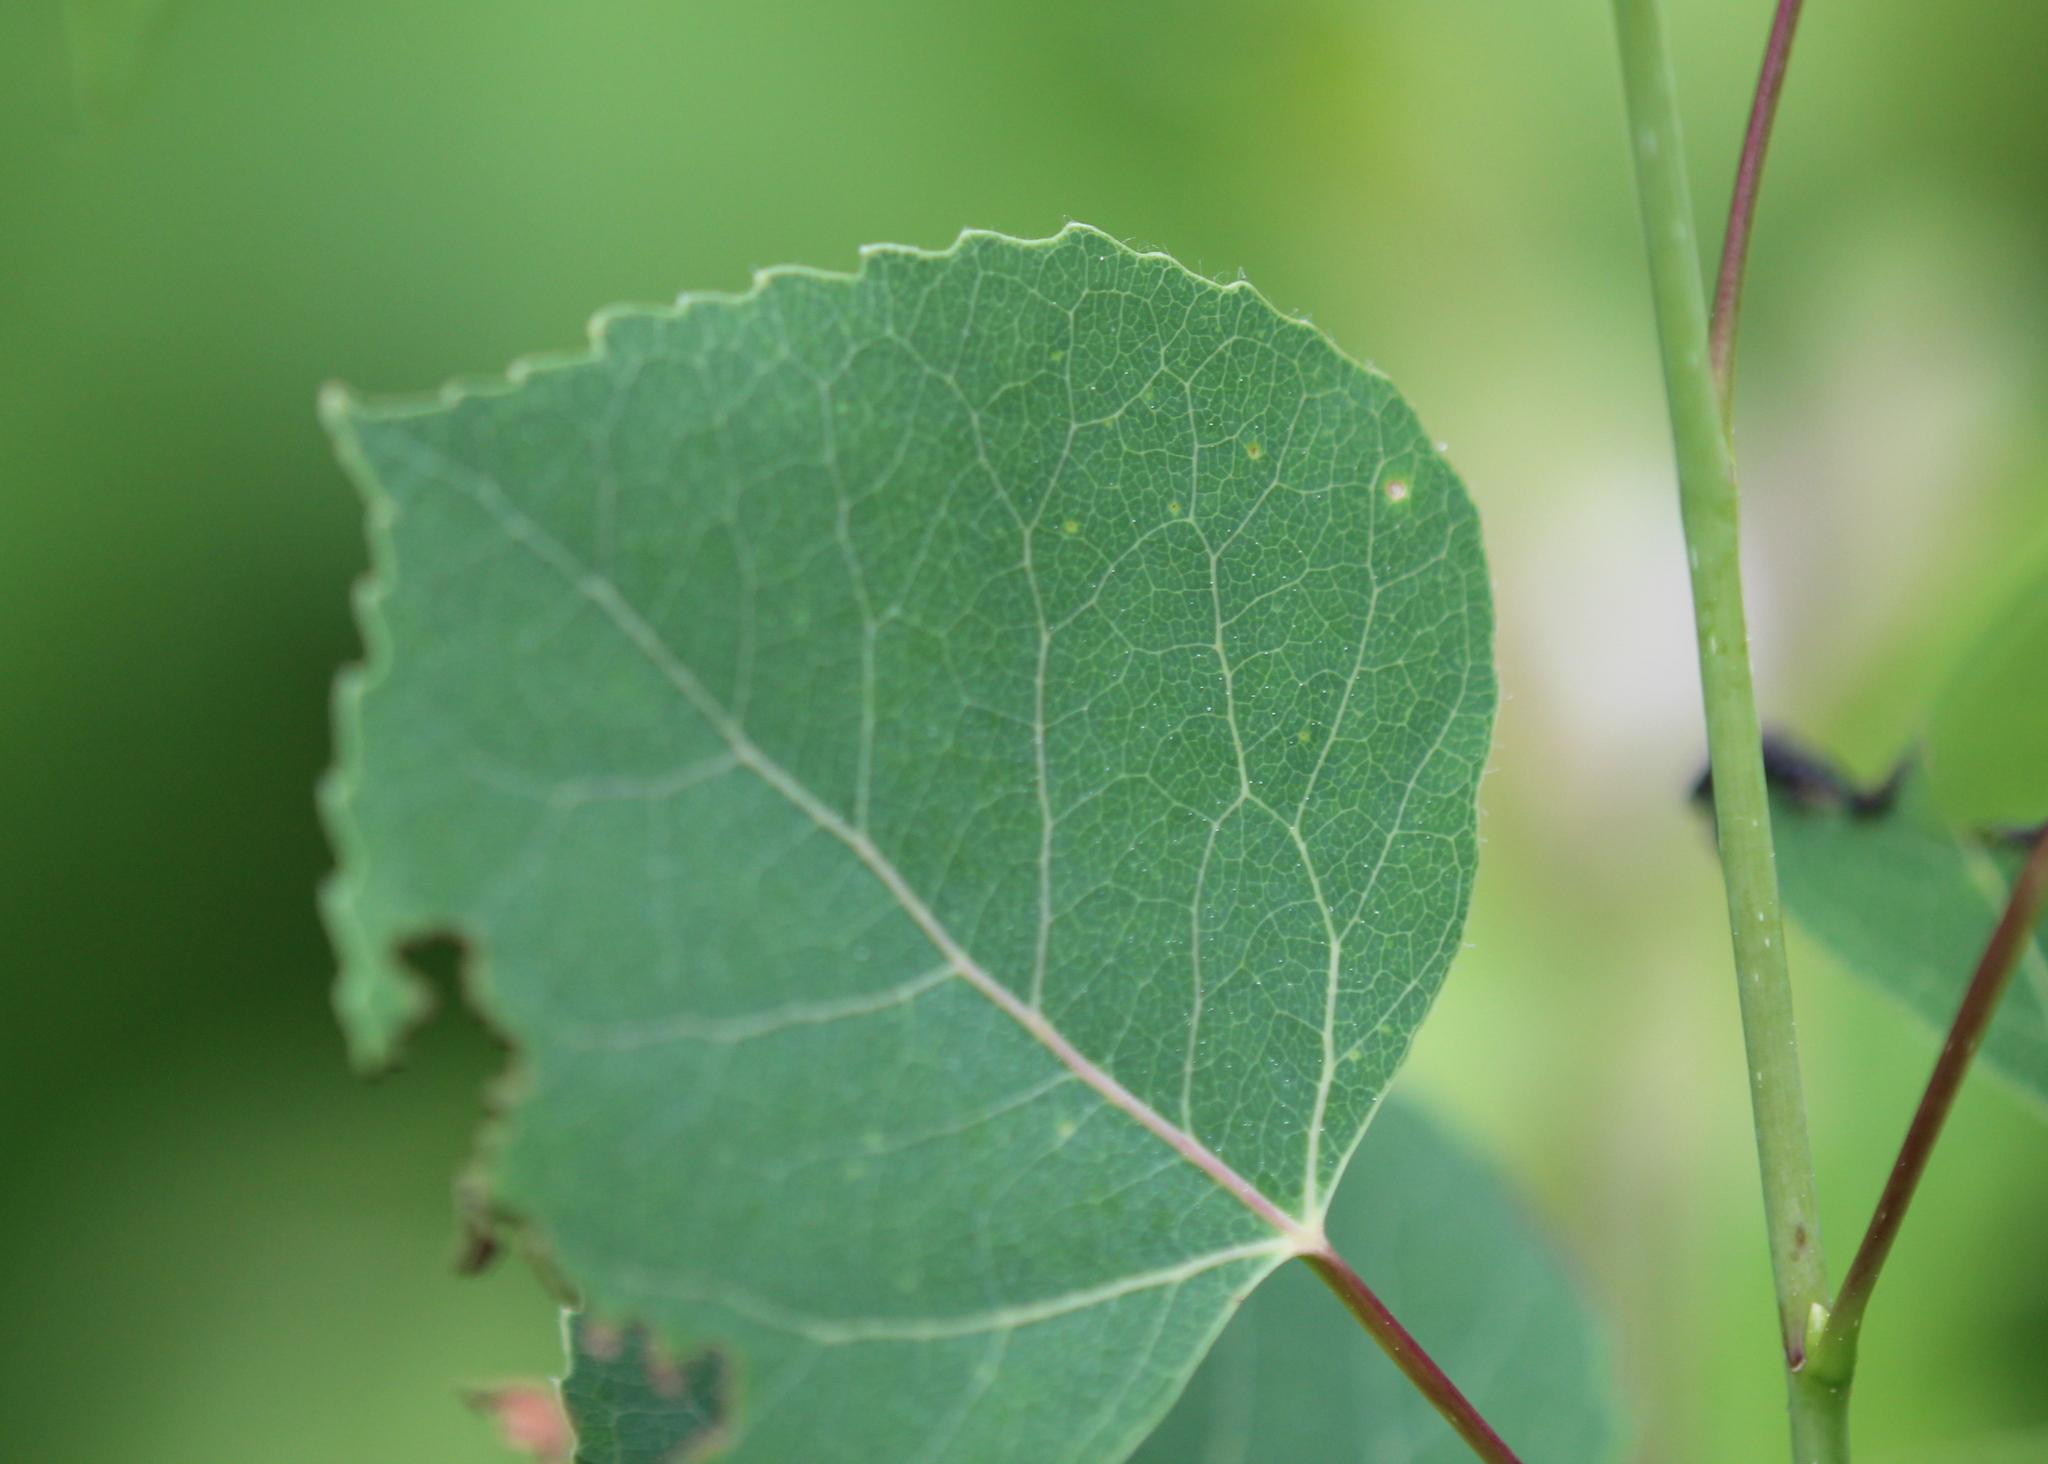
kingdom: Plantae
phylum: Tracheophyta
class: Magnoliopsida
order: Malpighiales
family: Salicaceae
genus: Populus
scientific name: Populus tremuloides
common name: Quaking aspen
